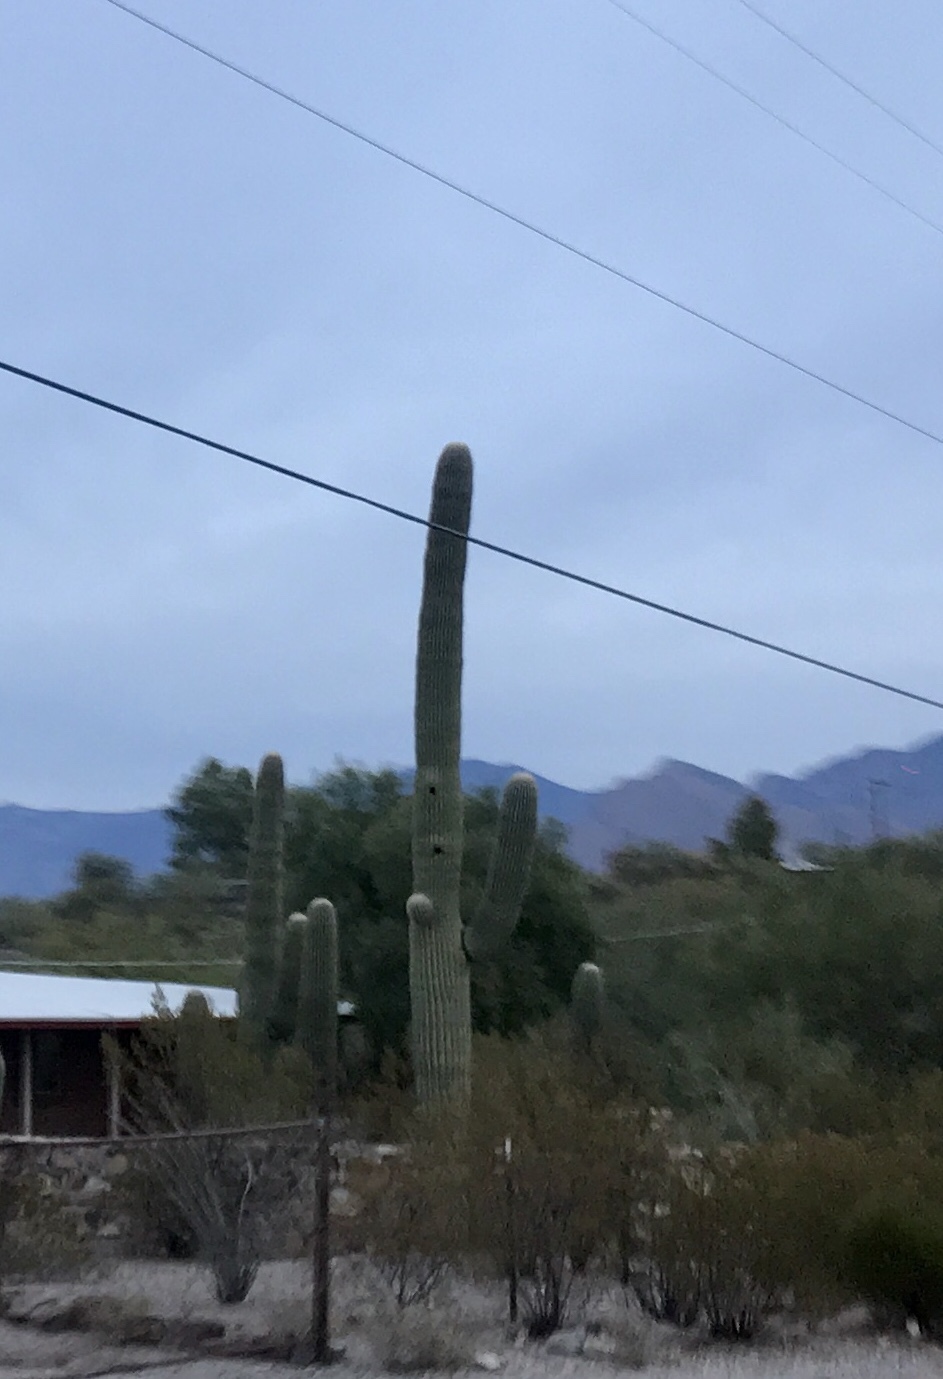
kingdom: Plantae
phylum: Tracheophyta
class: Magnoliopsida
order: Caryophyllales
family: Cactaceae
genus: Carnegiea
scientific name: Carnegiea gigantea
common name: Saguaro
